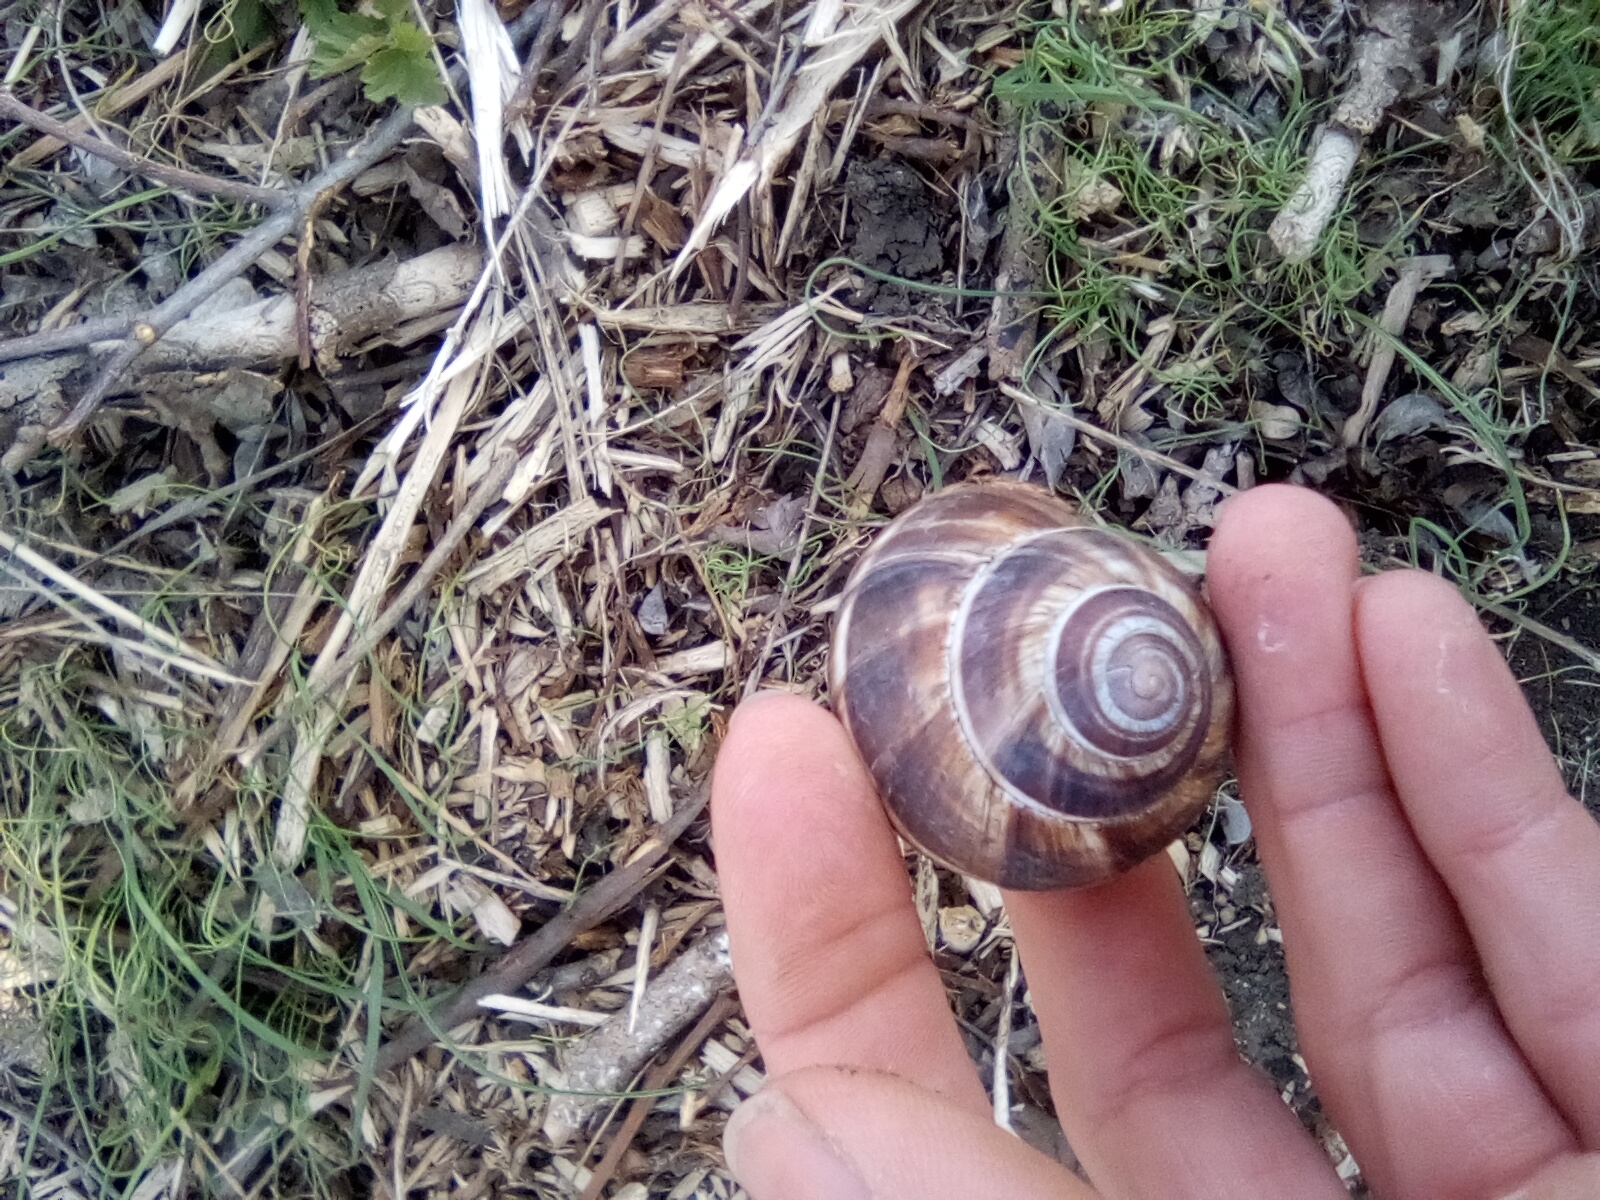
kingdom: Animalia
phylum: Mollusca
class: Gastropoda
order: Stylommatophora
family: Helicidae
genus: Helix
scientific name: Helix lucorum
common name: Turkish snail
